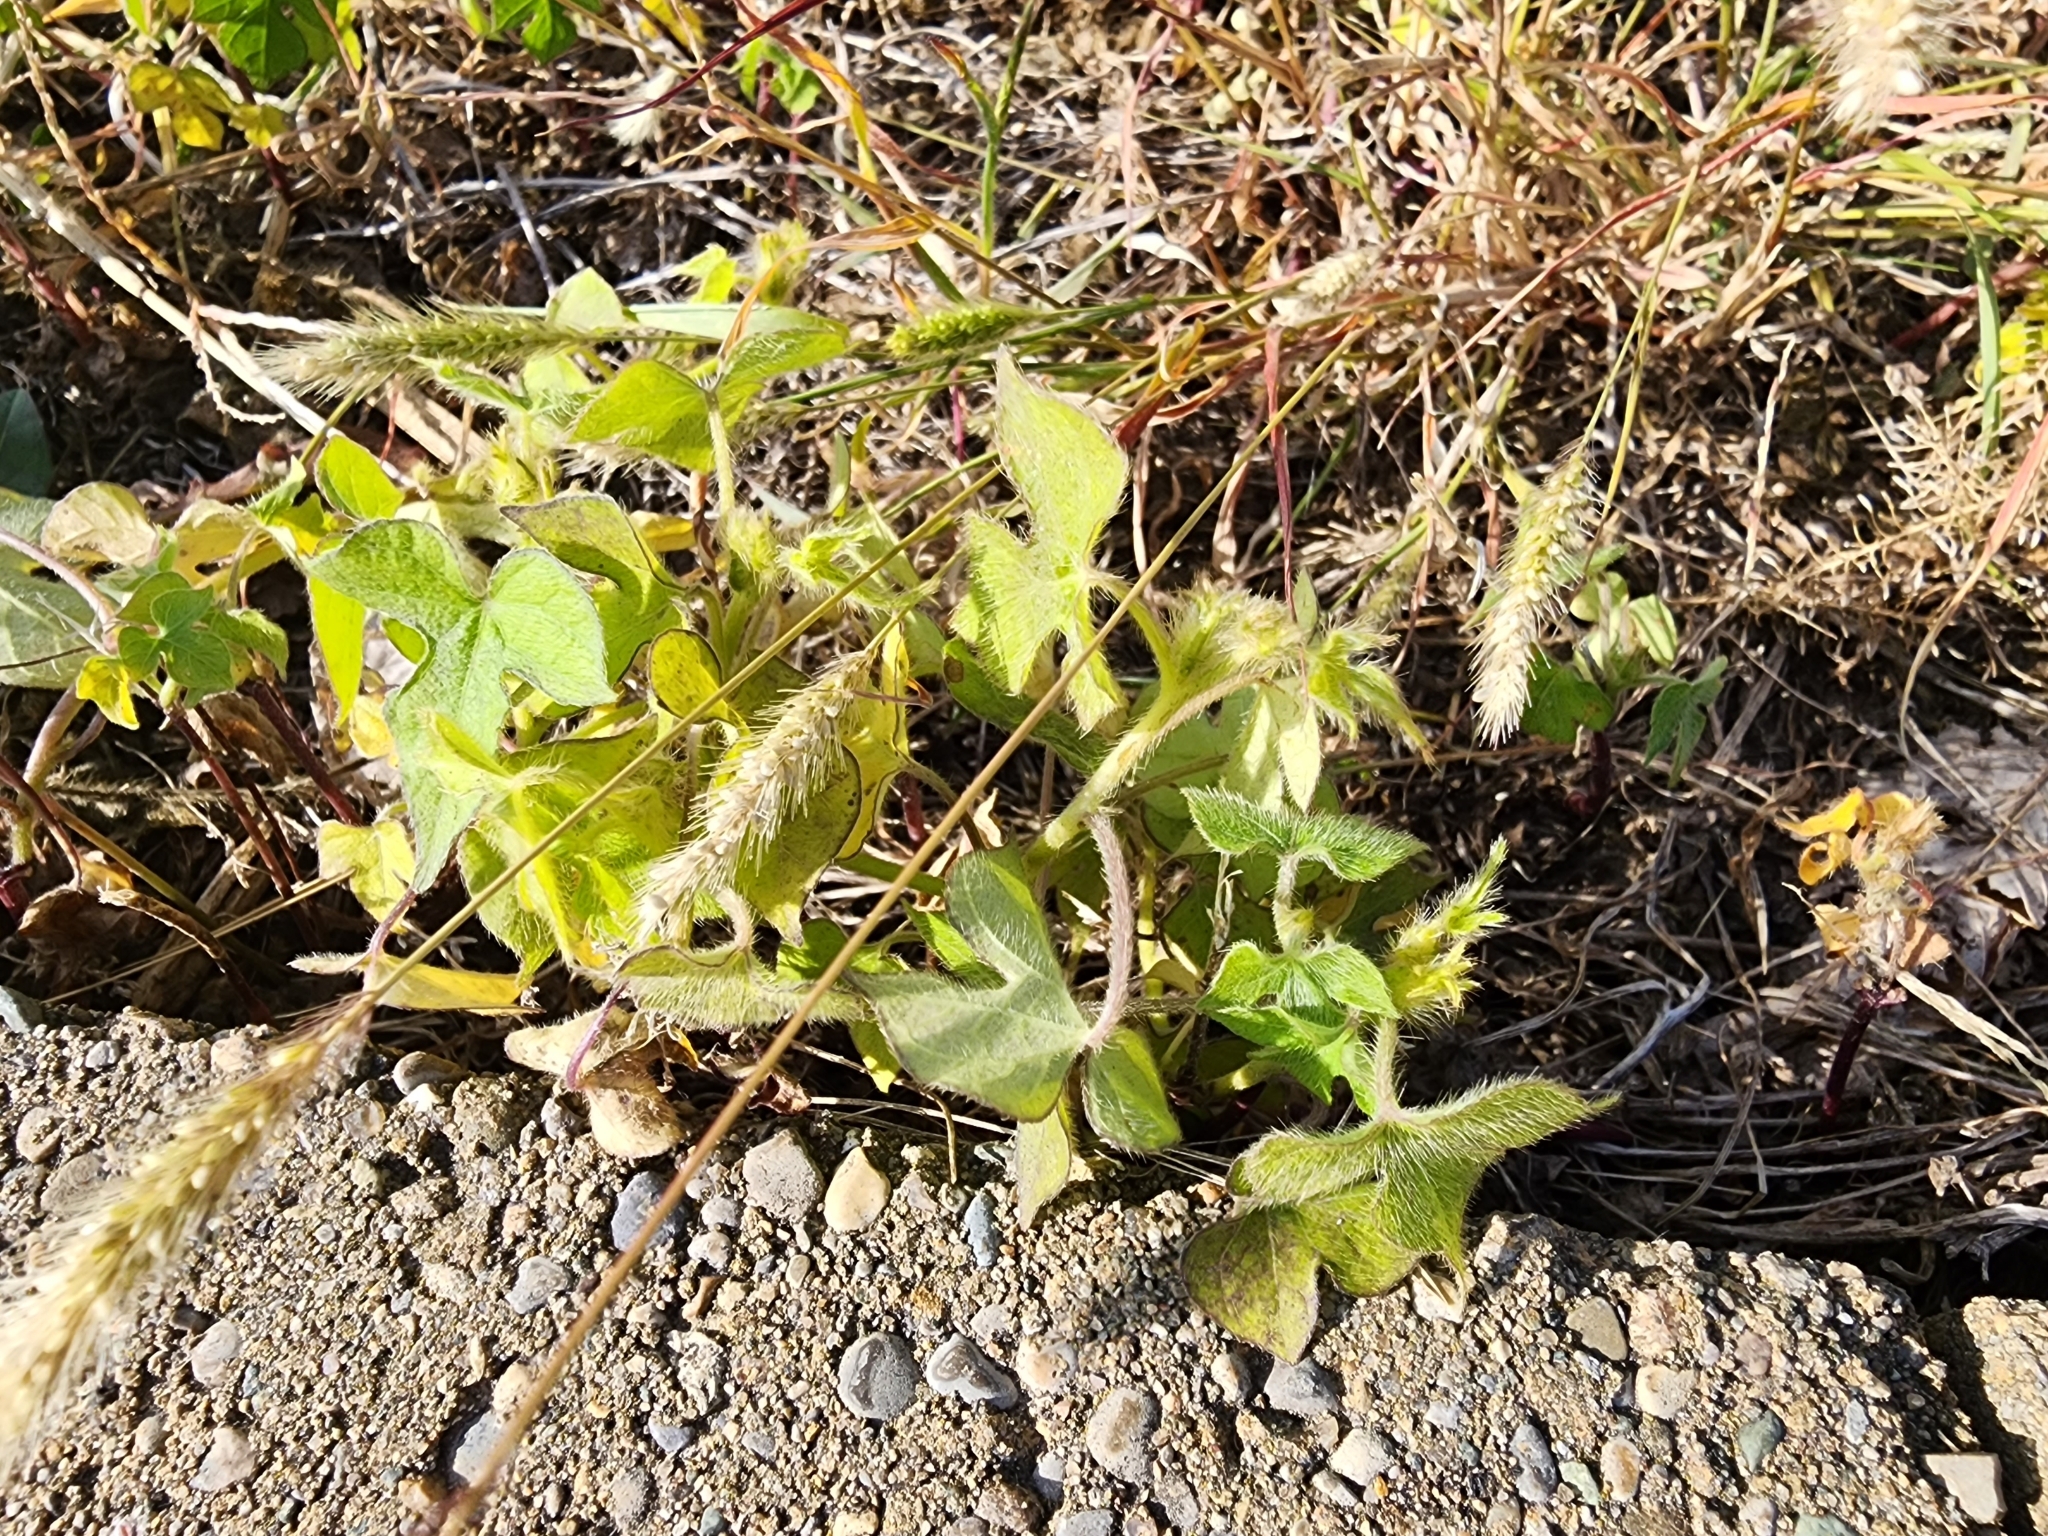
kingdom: Plantae
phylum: Tracheophyta
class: Magnoliopsida
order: Solanales
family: Convolvulaceae
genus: Ipomoea
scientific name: Ipomoea hederacea
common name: Ivy-leaved morning-glory
